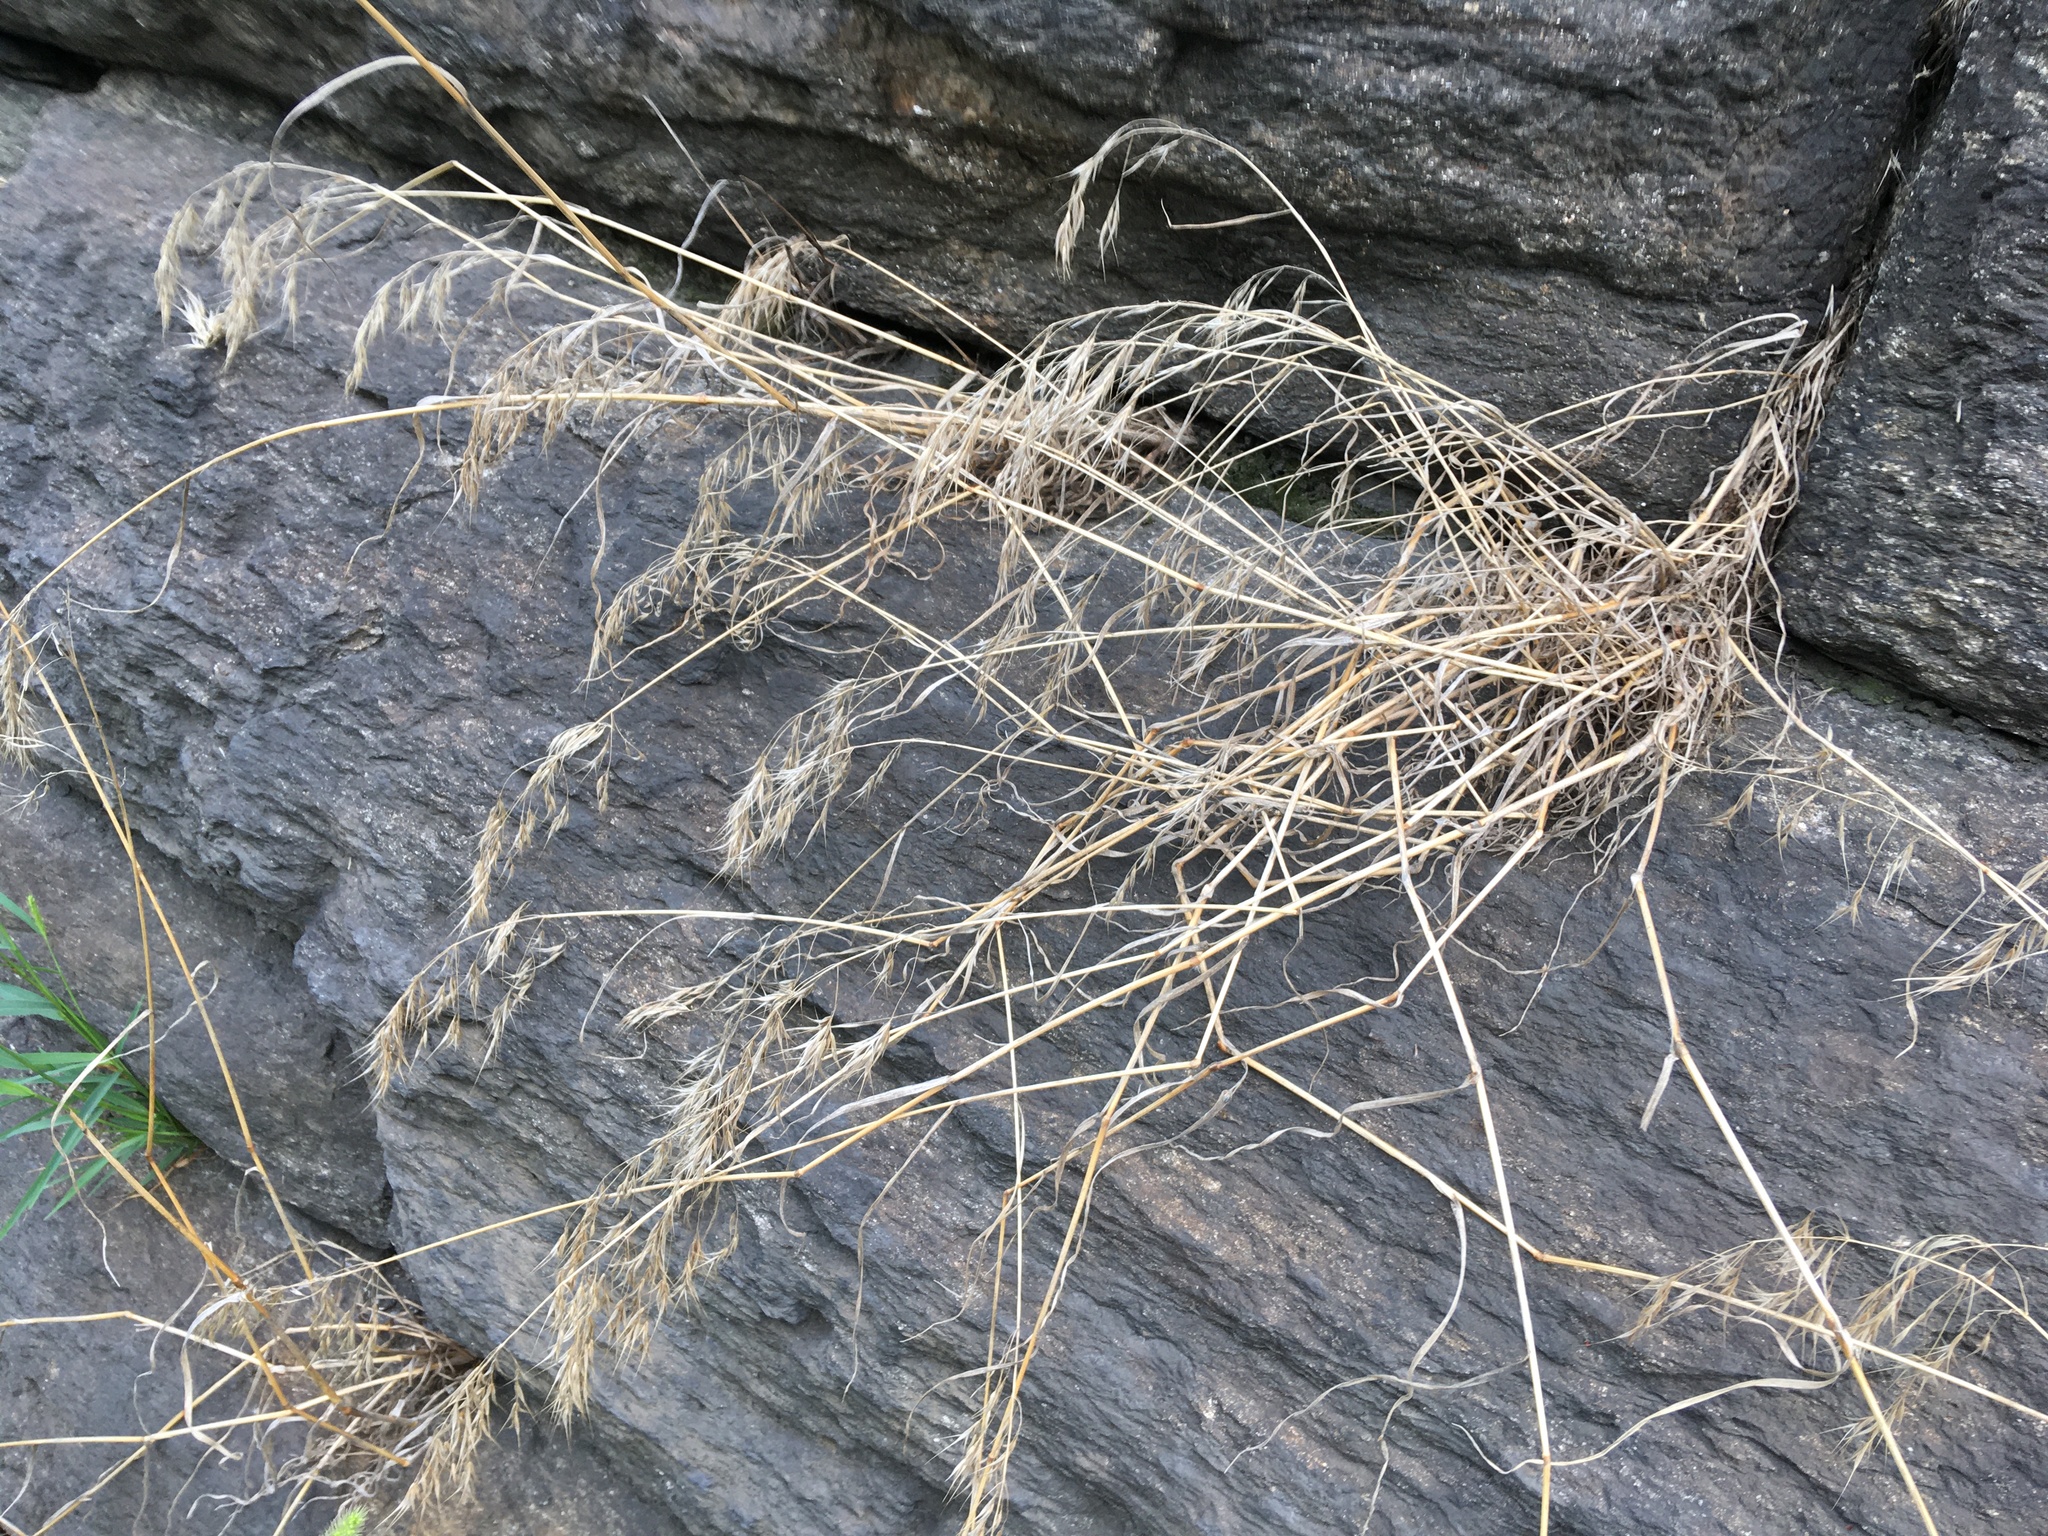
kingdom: Plantae
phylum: Tracheophyta
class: Liliopsida
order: Poales
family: Poaceae
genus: Bromus
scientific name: Bromus tectorum
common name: Cheatgrass
